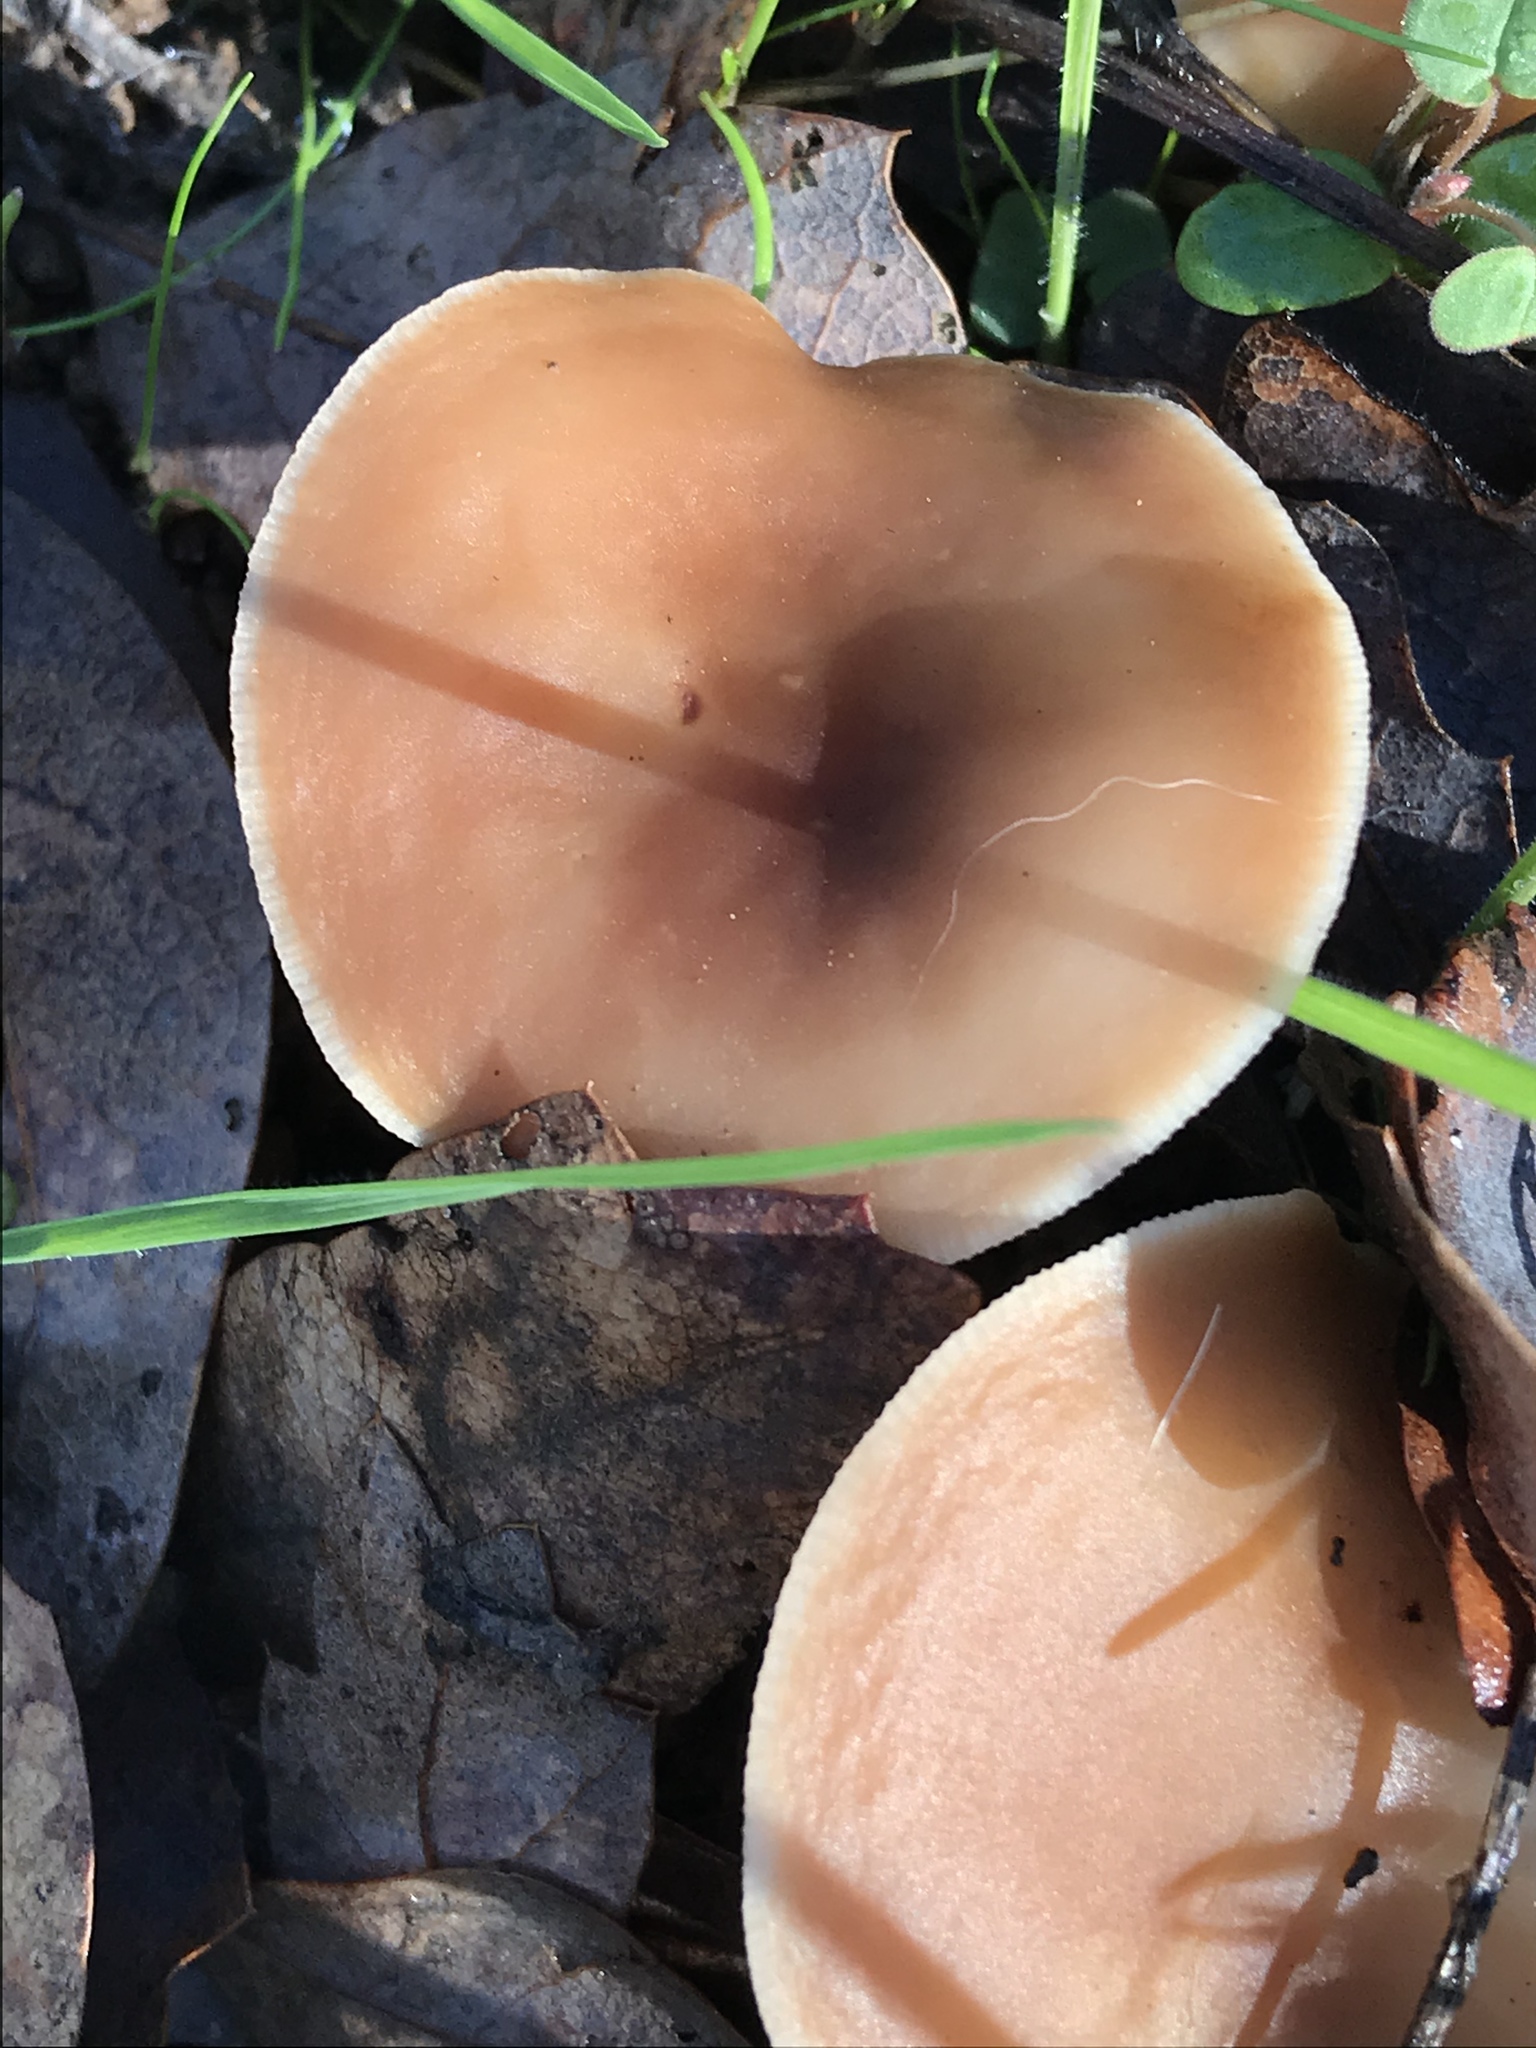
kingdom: Fungi
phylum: Basidiomycota
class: Agaricomycetes
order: Agaricales
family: Omphalotaceae
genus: Gymnopus
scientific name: Gymnopus dryophilus
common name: Penny top
